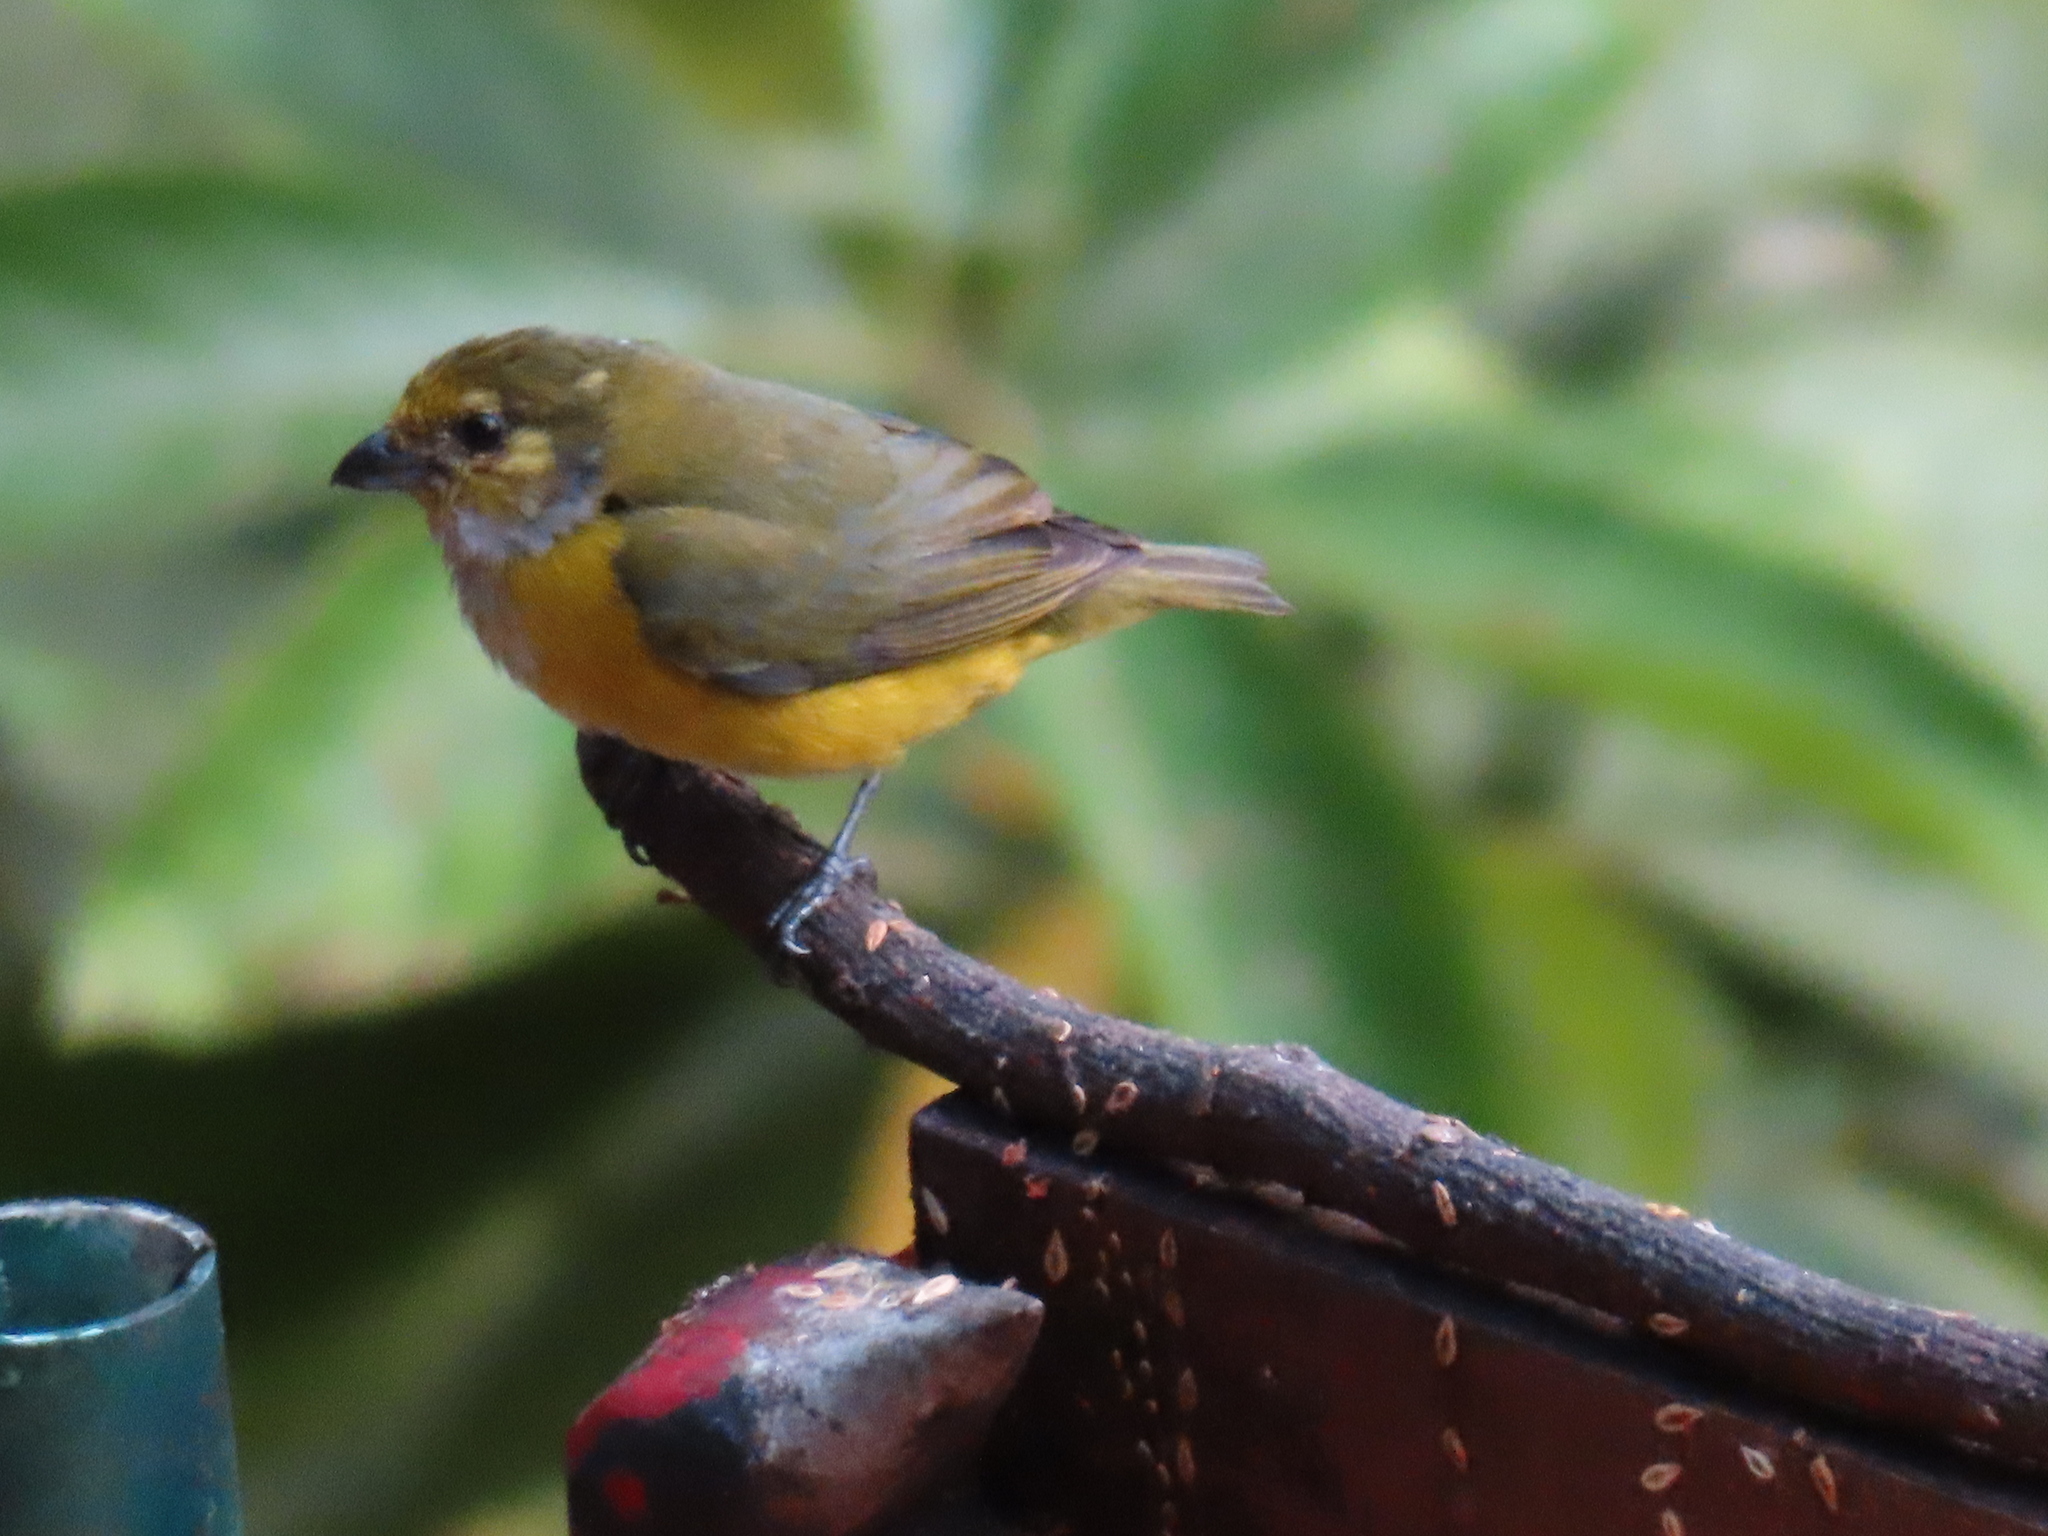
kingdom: Animalia
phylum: Chordata
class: Aves
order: Passeriformes
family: Fringillidae
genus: Euphonia
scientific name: Euphonia hirundinacea
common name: Yellow-throated euphonia
